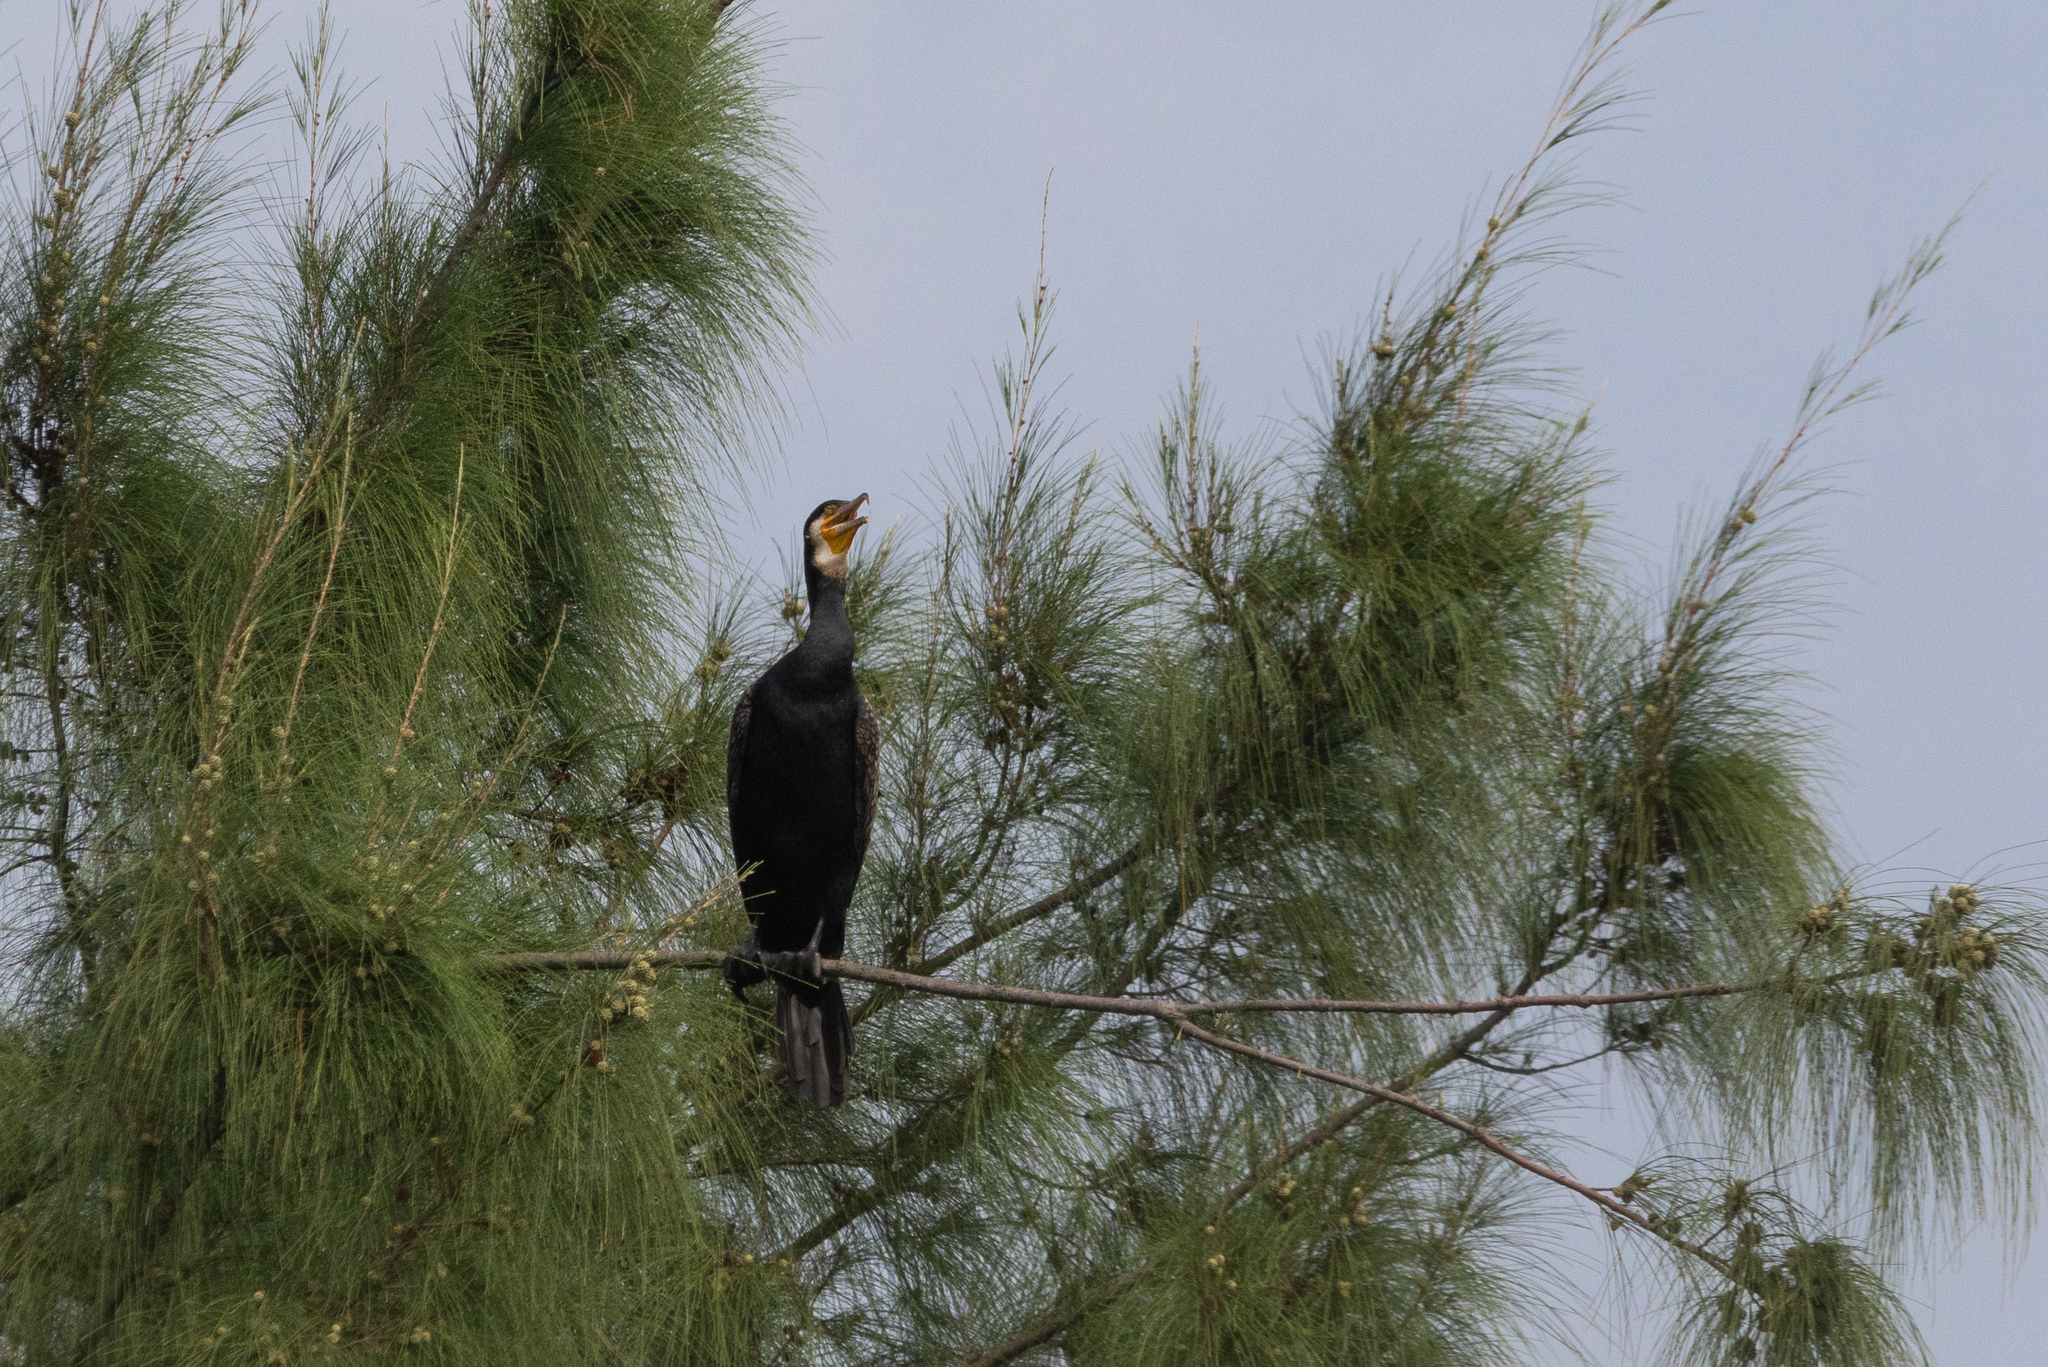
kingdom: Animalia
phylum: Chordata
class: Aves
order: Suliformes
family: Phalacrocoracidae
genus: Phalacrocorax
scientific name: Phalacrocorax carbo
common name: Great cormorant
